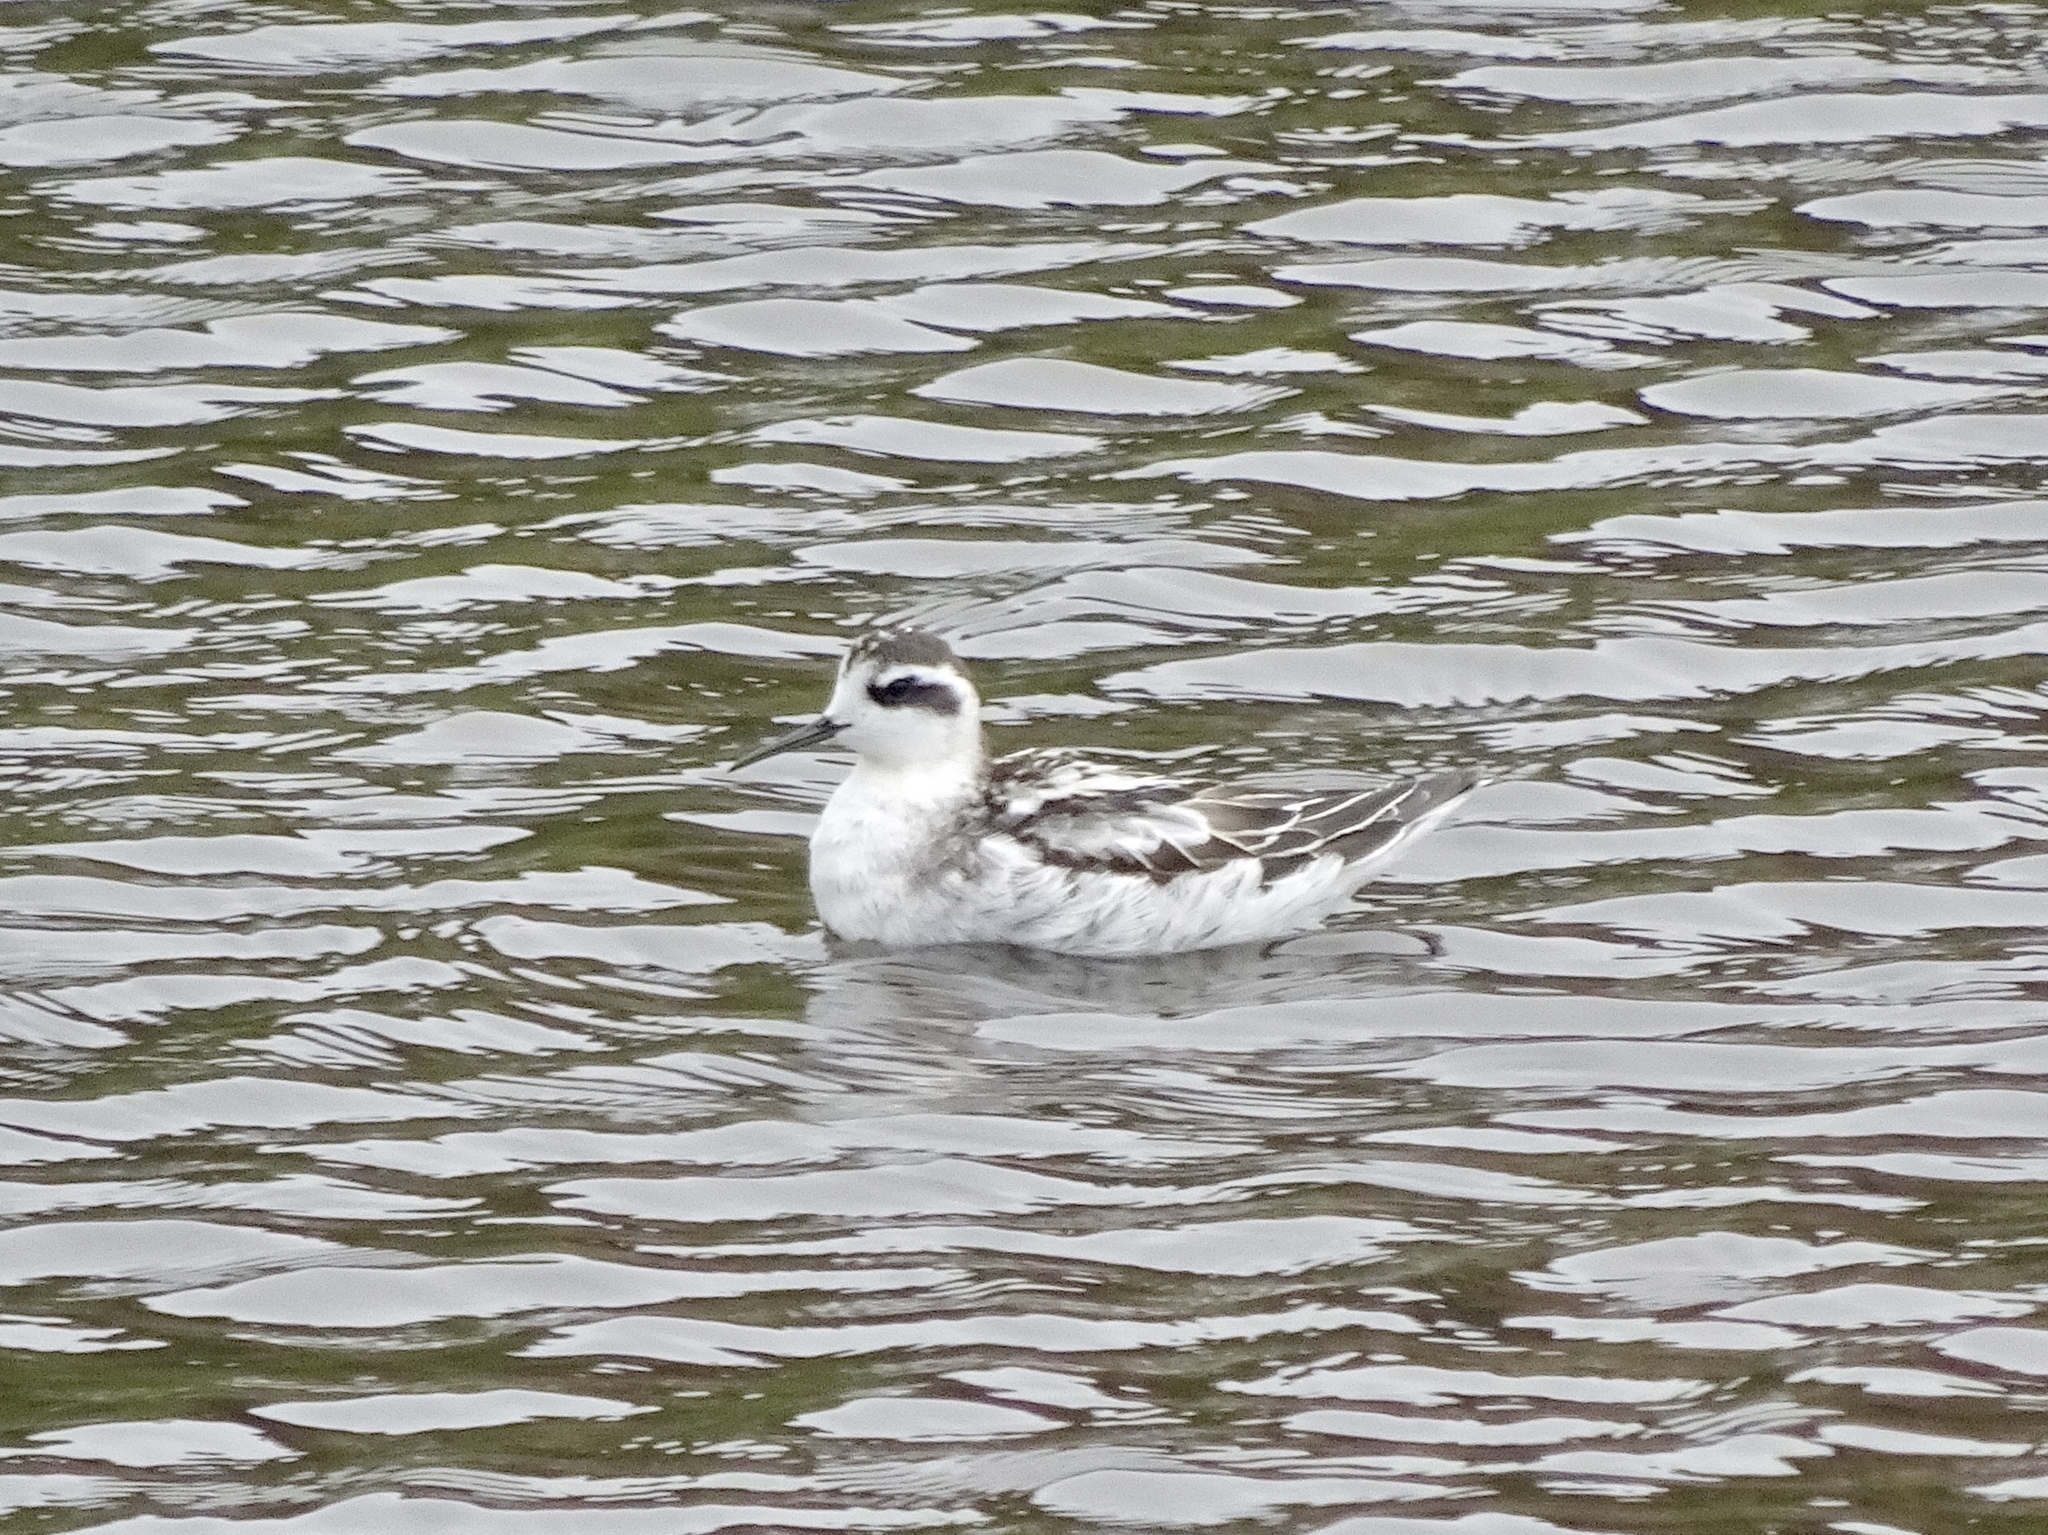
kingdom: Animalia
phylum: Chordata
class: Aves
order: Charadriiformes
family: Scolopacidae
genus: Phalaropus
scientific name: Phalaropus lobatus
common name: Red-necked phalarope
